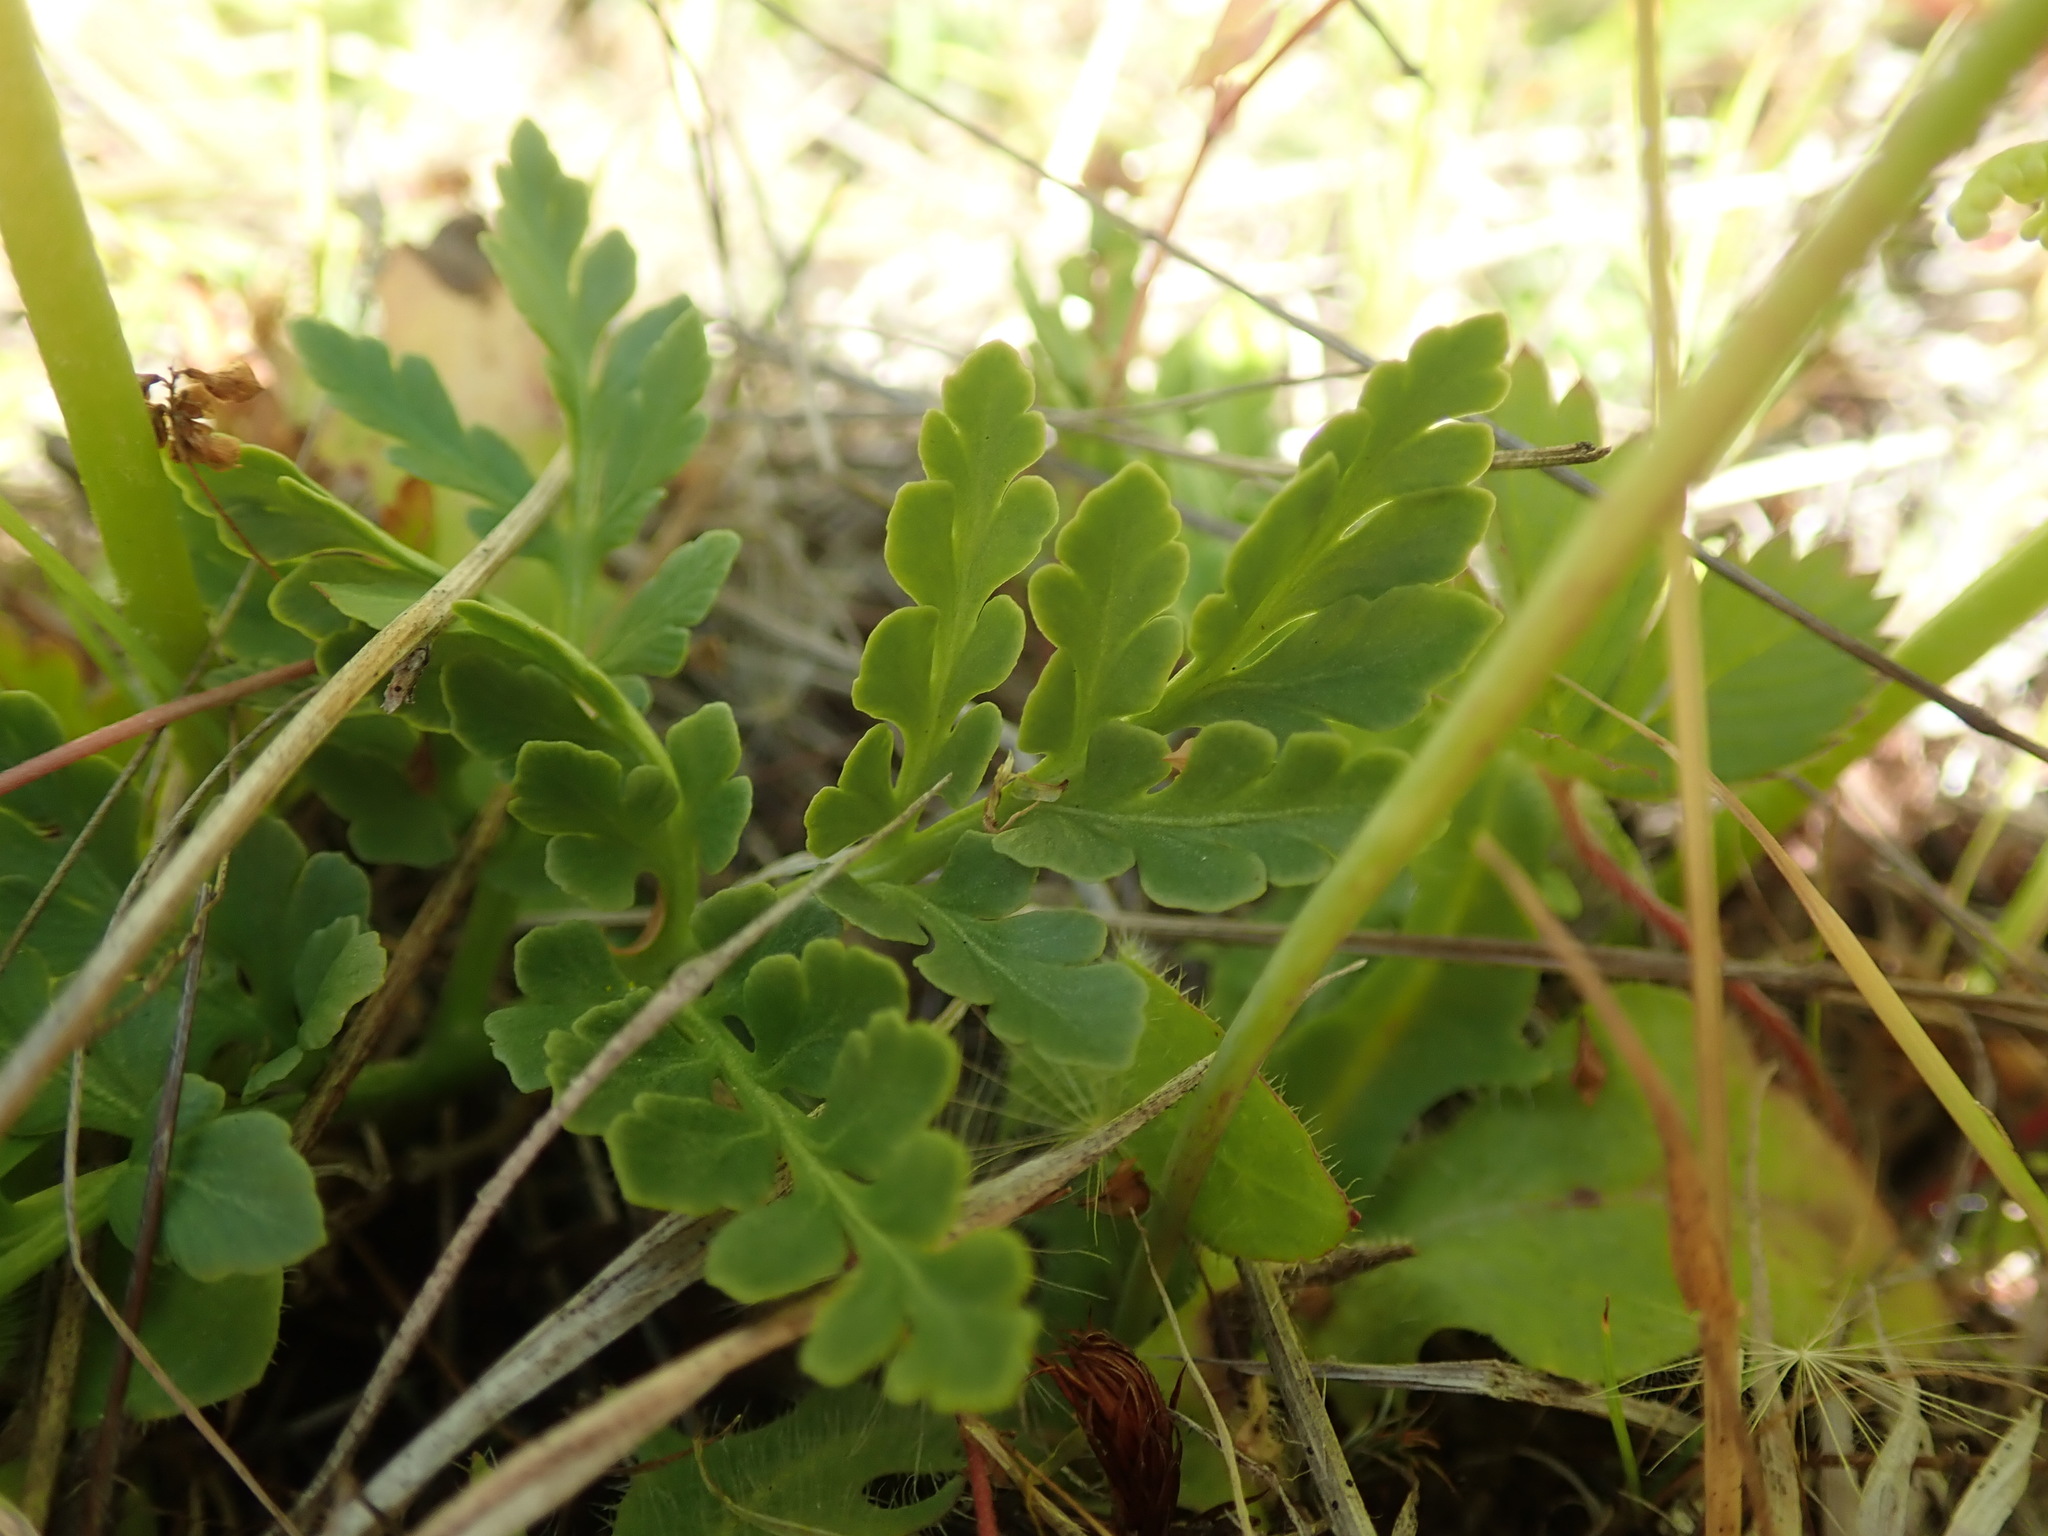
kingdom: Plantae
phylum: Tracheophyta
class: Polypodiopsida
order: Ophioglossales
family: Ophioglossaceae
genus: Sceptridium
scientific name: Sceptridium multifidum
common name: Leathery grape fern
